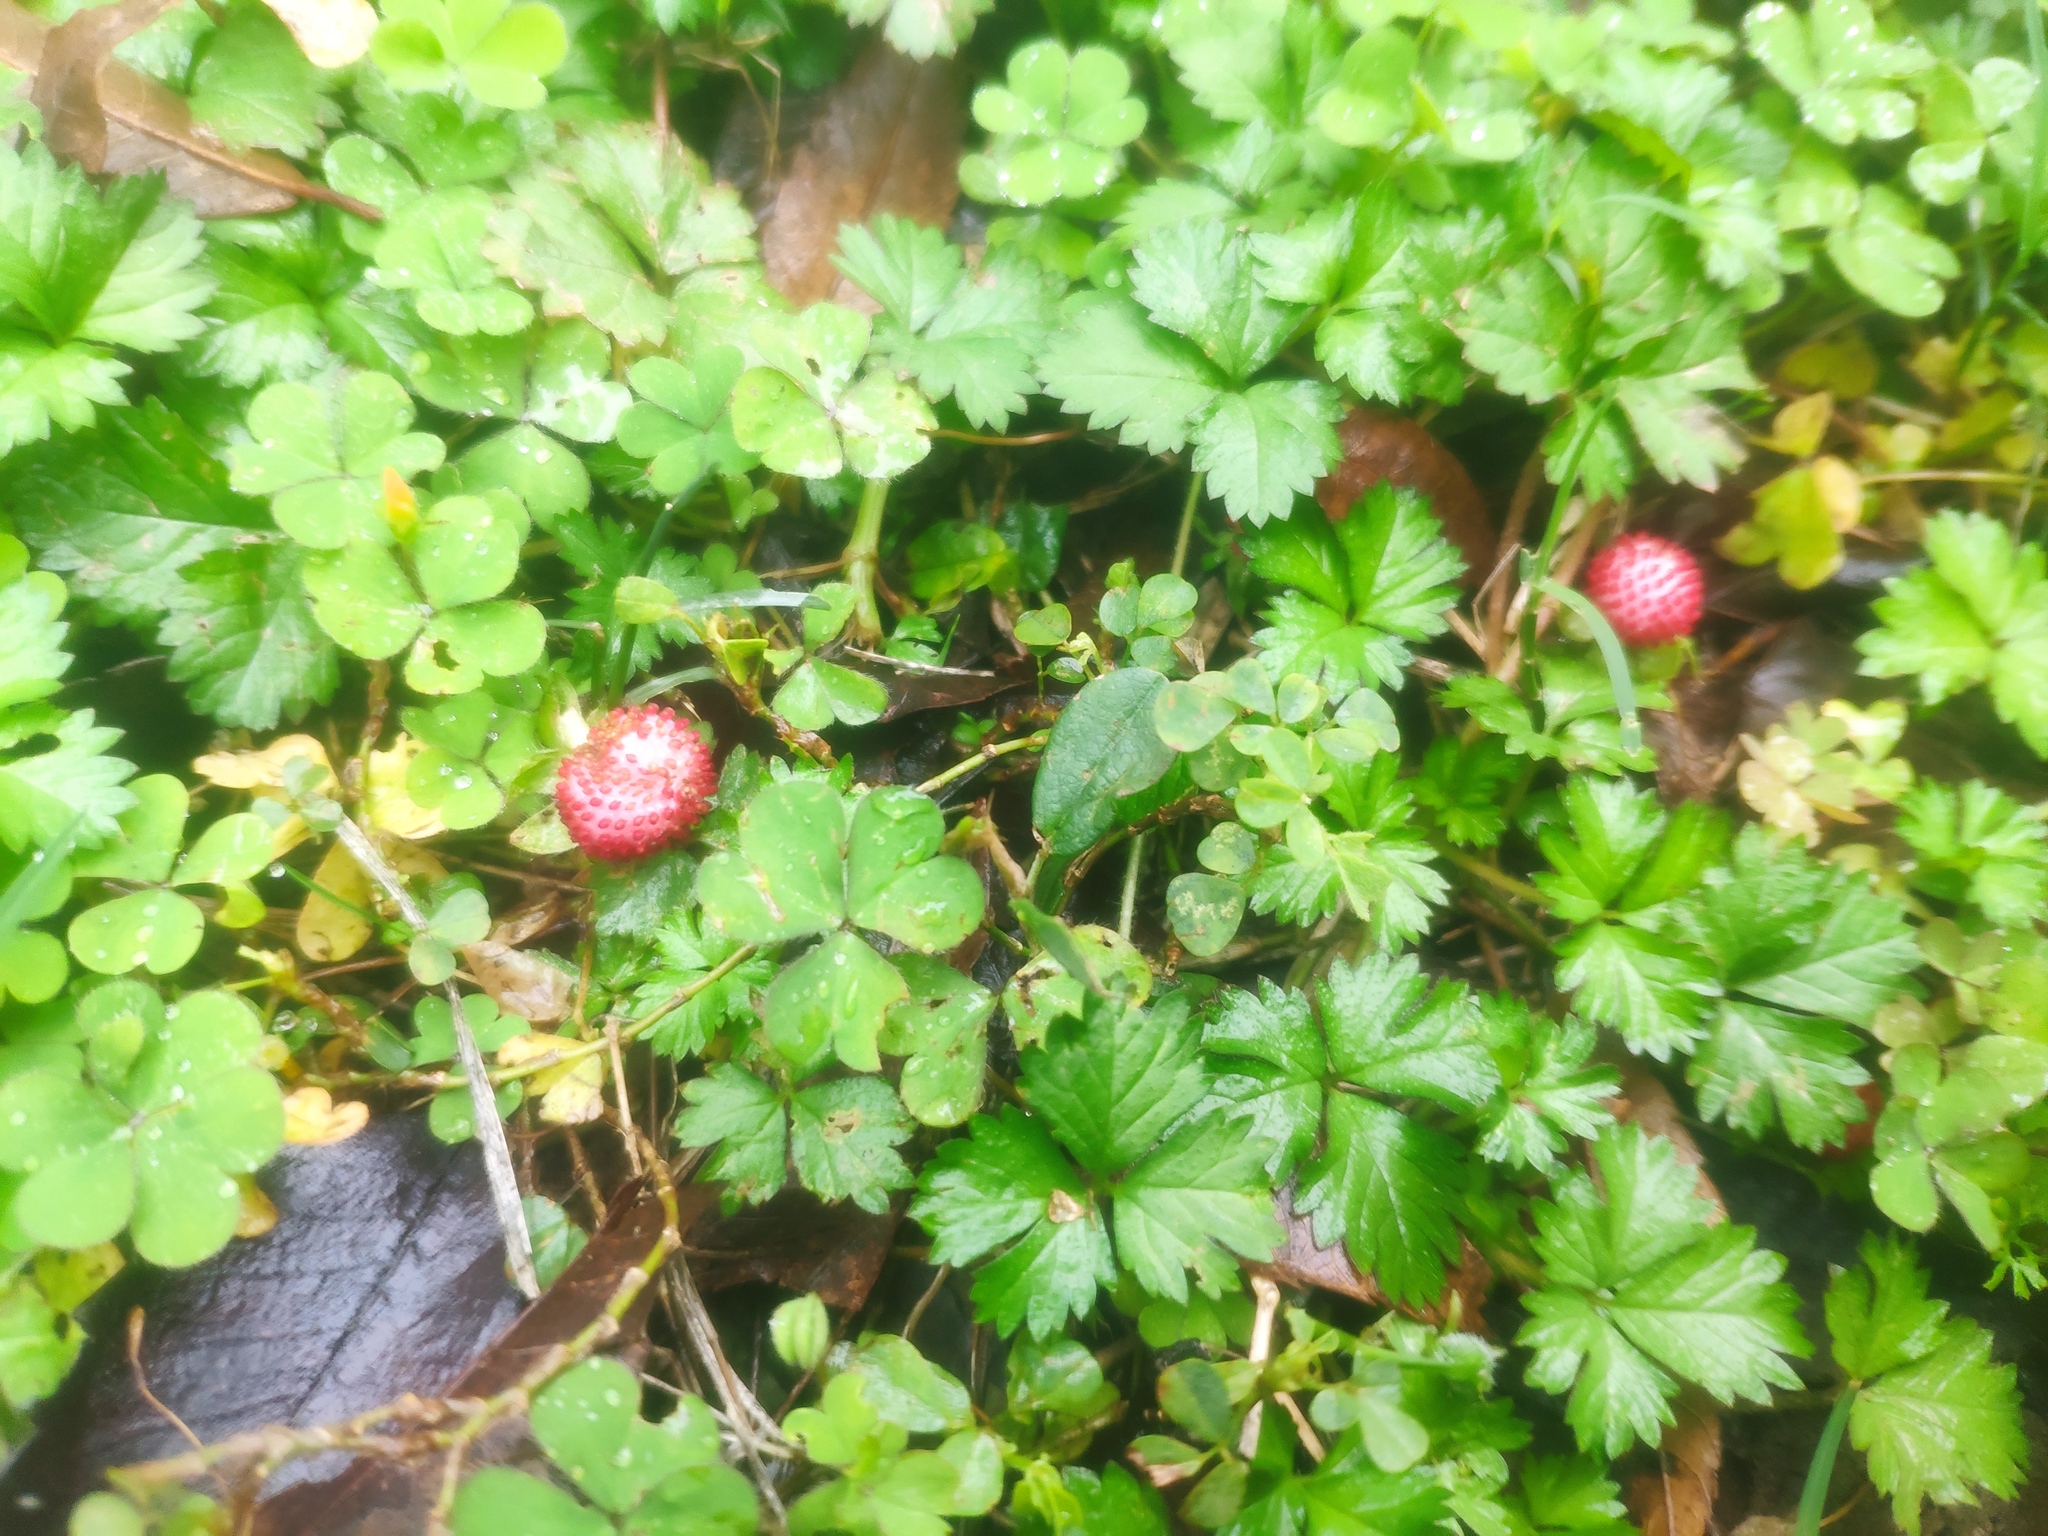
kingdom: Plantae
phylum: Tracheophyta
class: Magnoliopsida
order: Rosales
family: Rosaceae
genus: Potentilla
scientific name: Potentilla wallichiana
